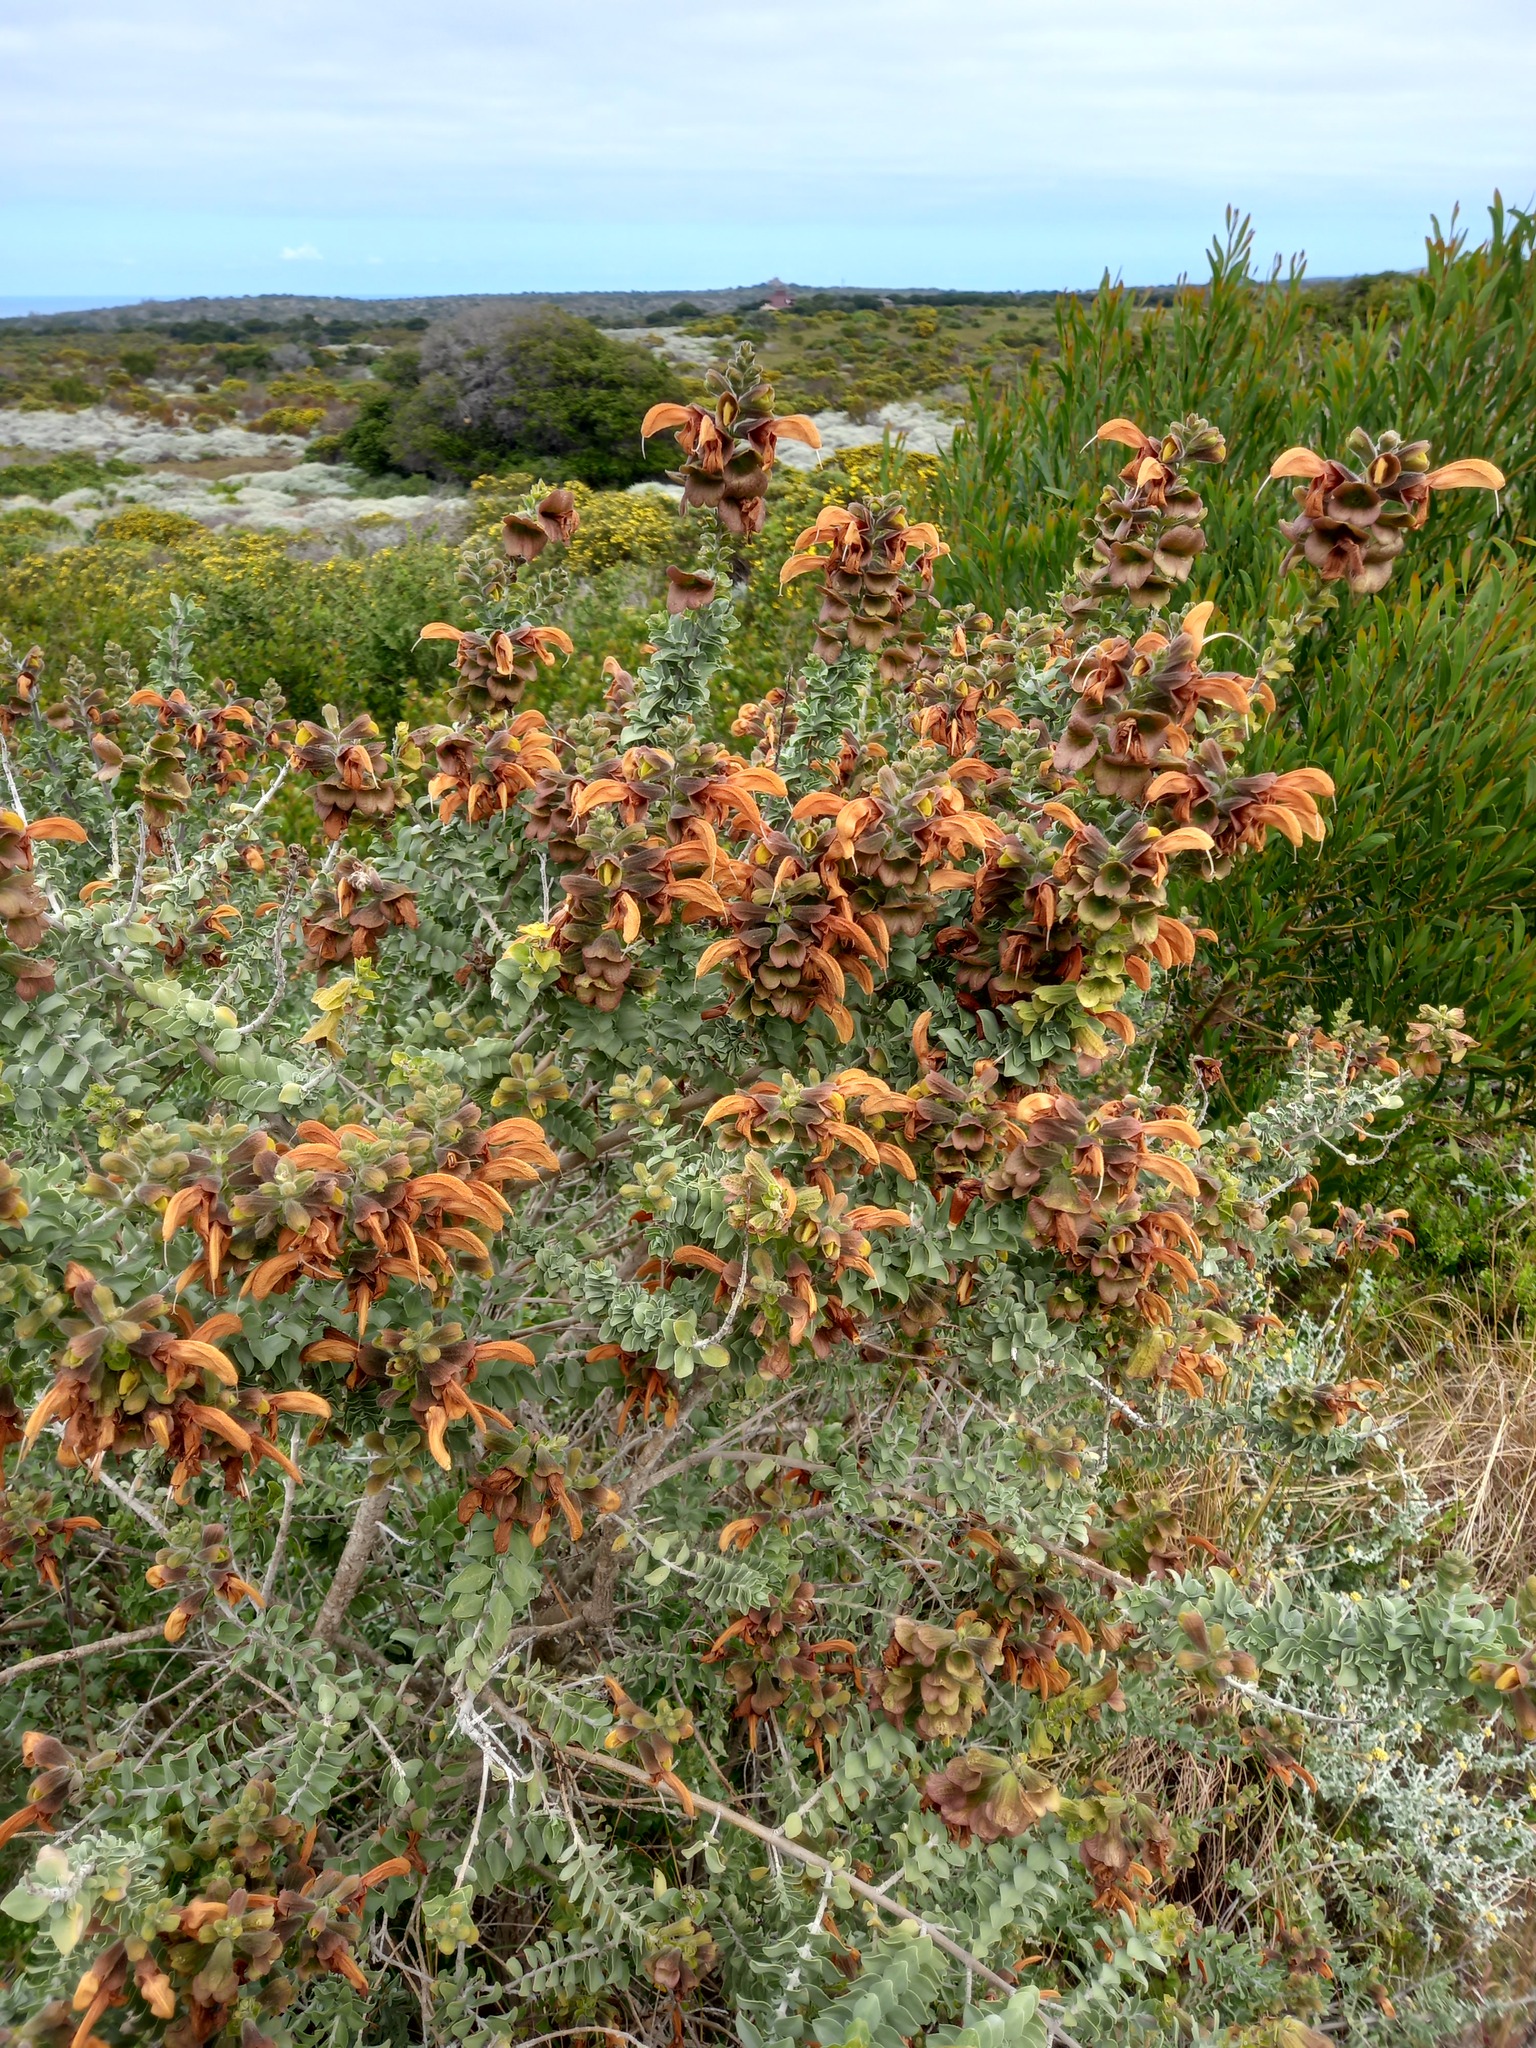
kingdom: Plantae
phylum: Tracheophyta
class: Magnoliopsida
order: Lamiales
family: Lamiaceae
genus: Salvia
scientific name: Salvia aurea
